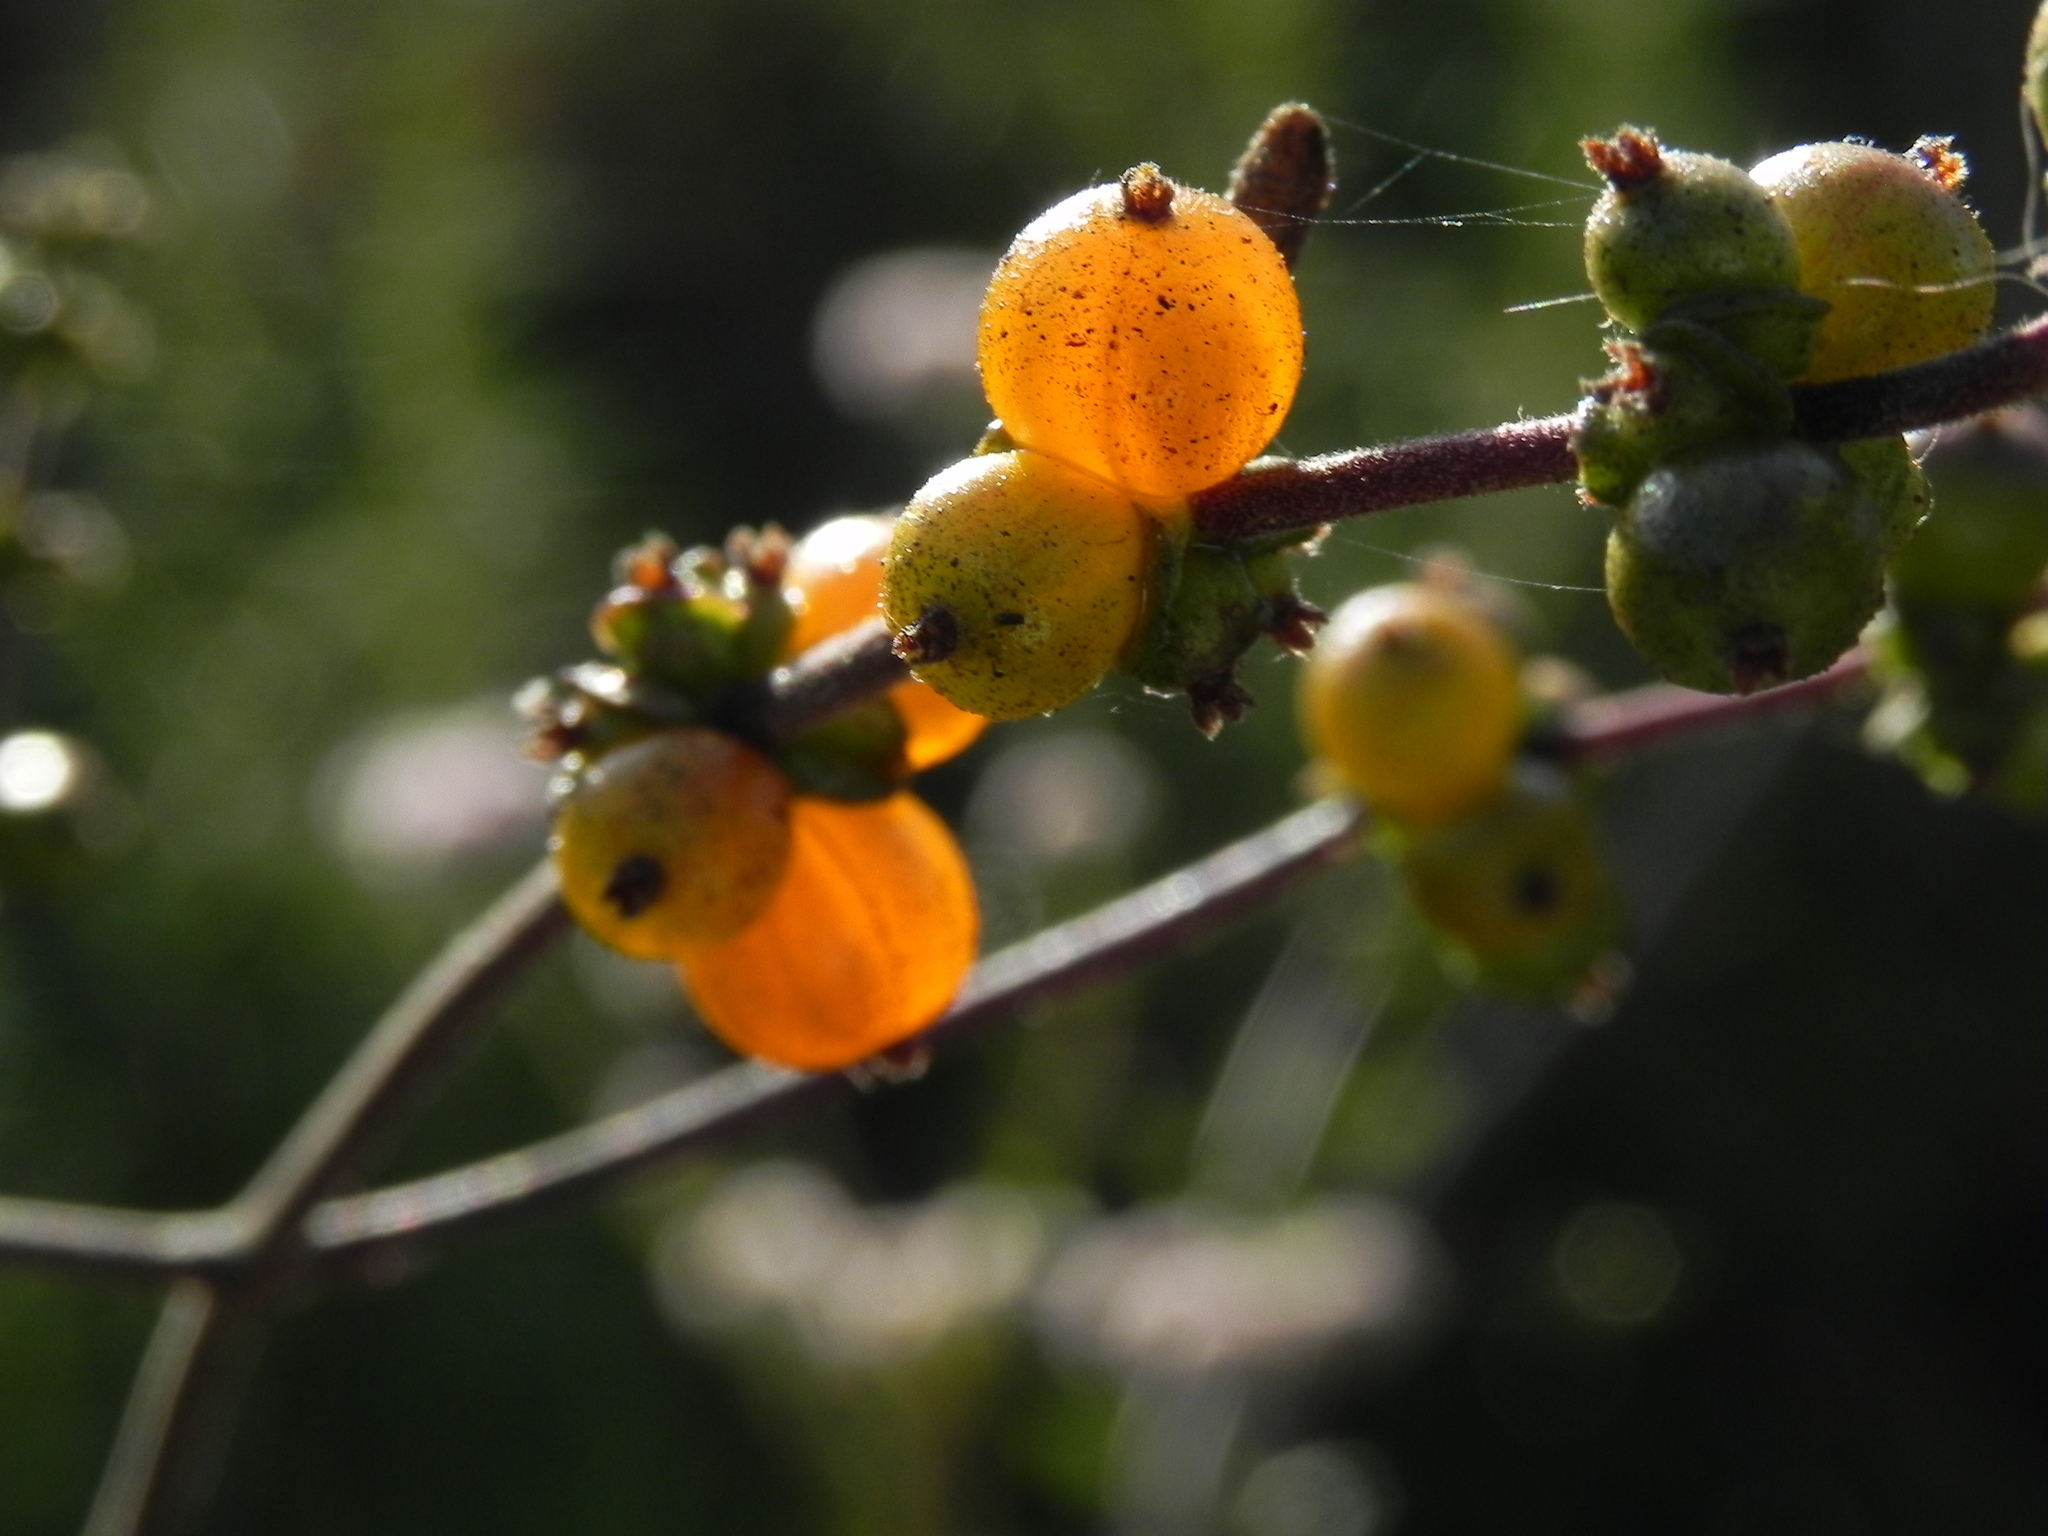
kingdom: Plantae
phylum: Tracheophyta
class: Magnoliopsida
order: Dipsacales
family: Caprifoliaceae
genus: Lonicera
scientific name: Lonicera subspicata
